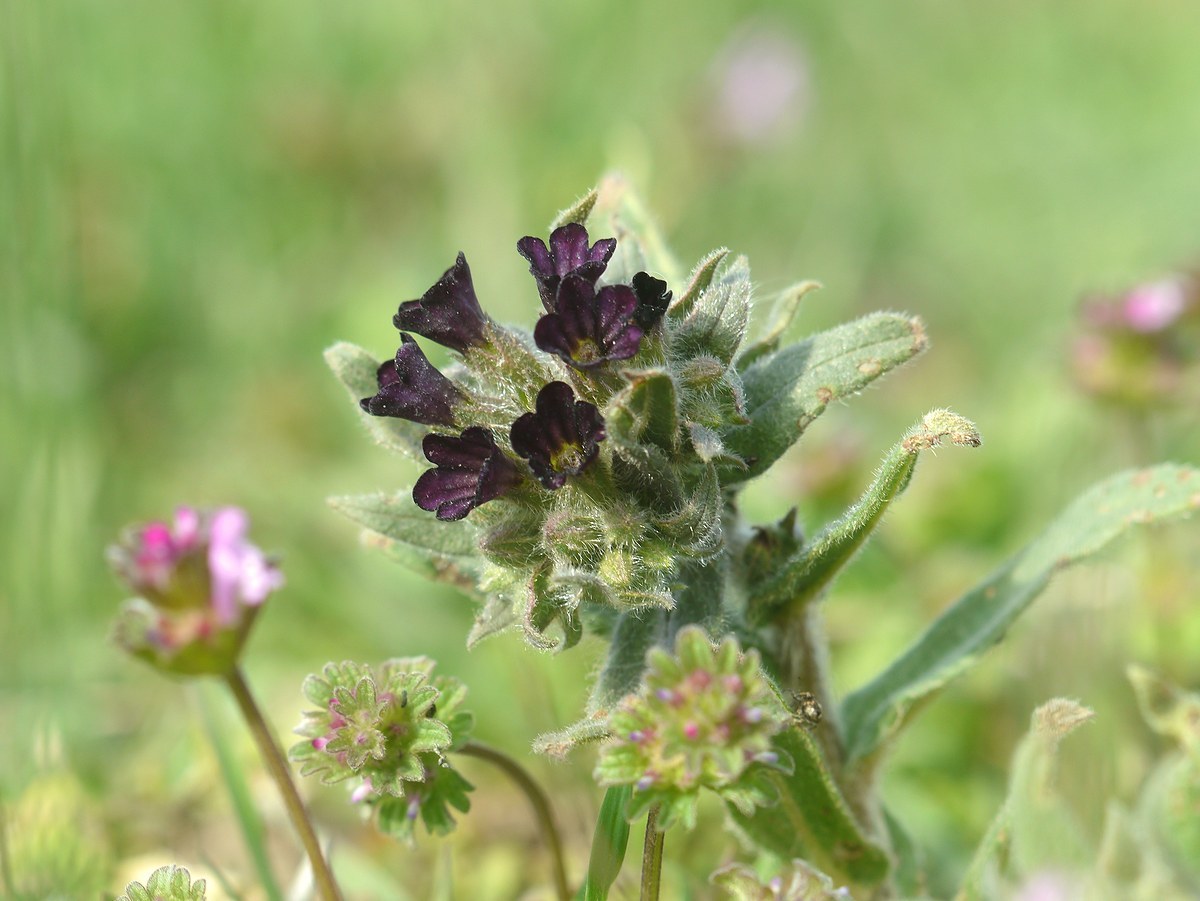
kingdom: Plantae
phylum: Tracheophyta
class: Magnoliopsida
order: Boraginales
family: Boraginaceae
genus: Nonea
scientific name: Nonea pulla
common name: Brown nonea
